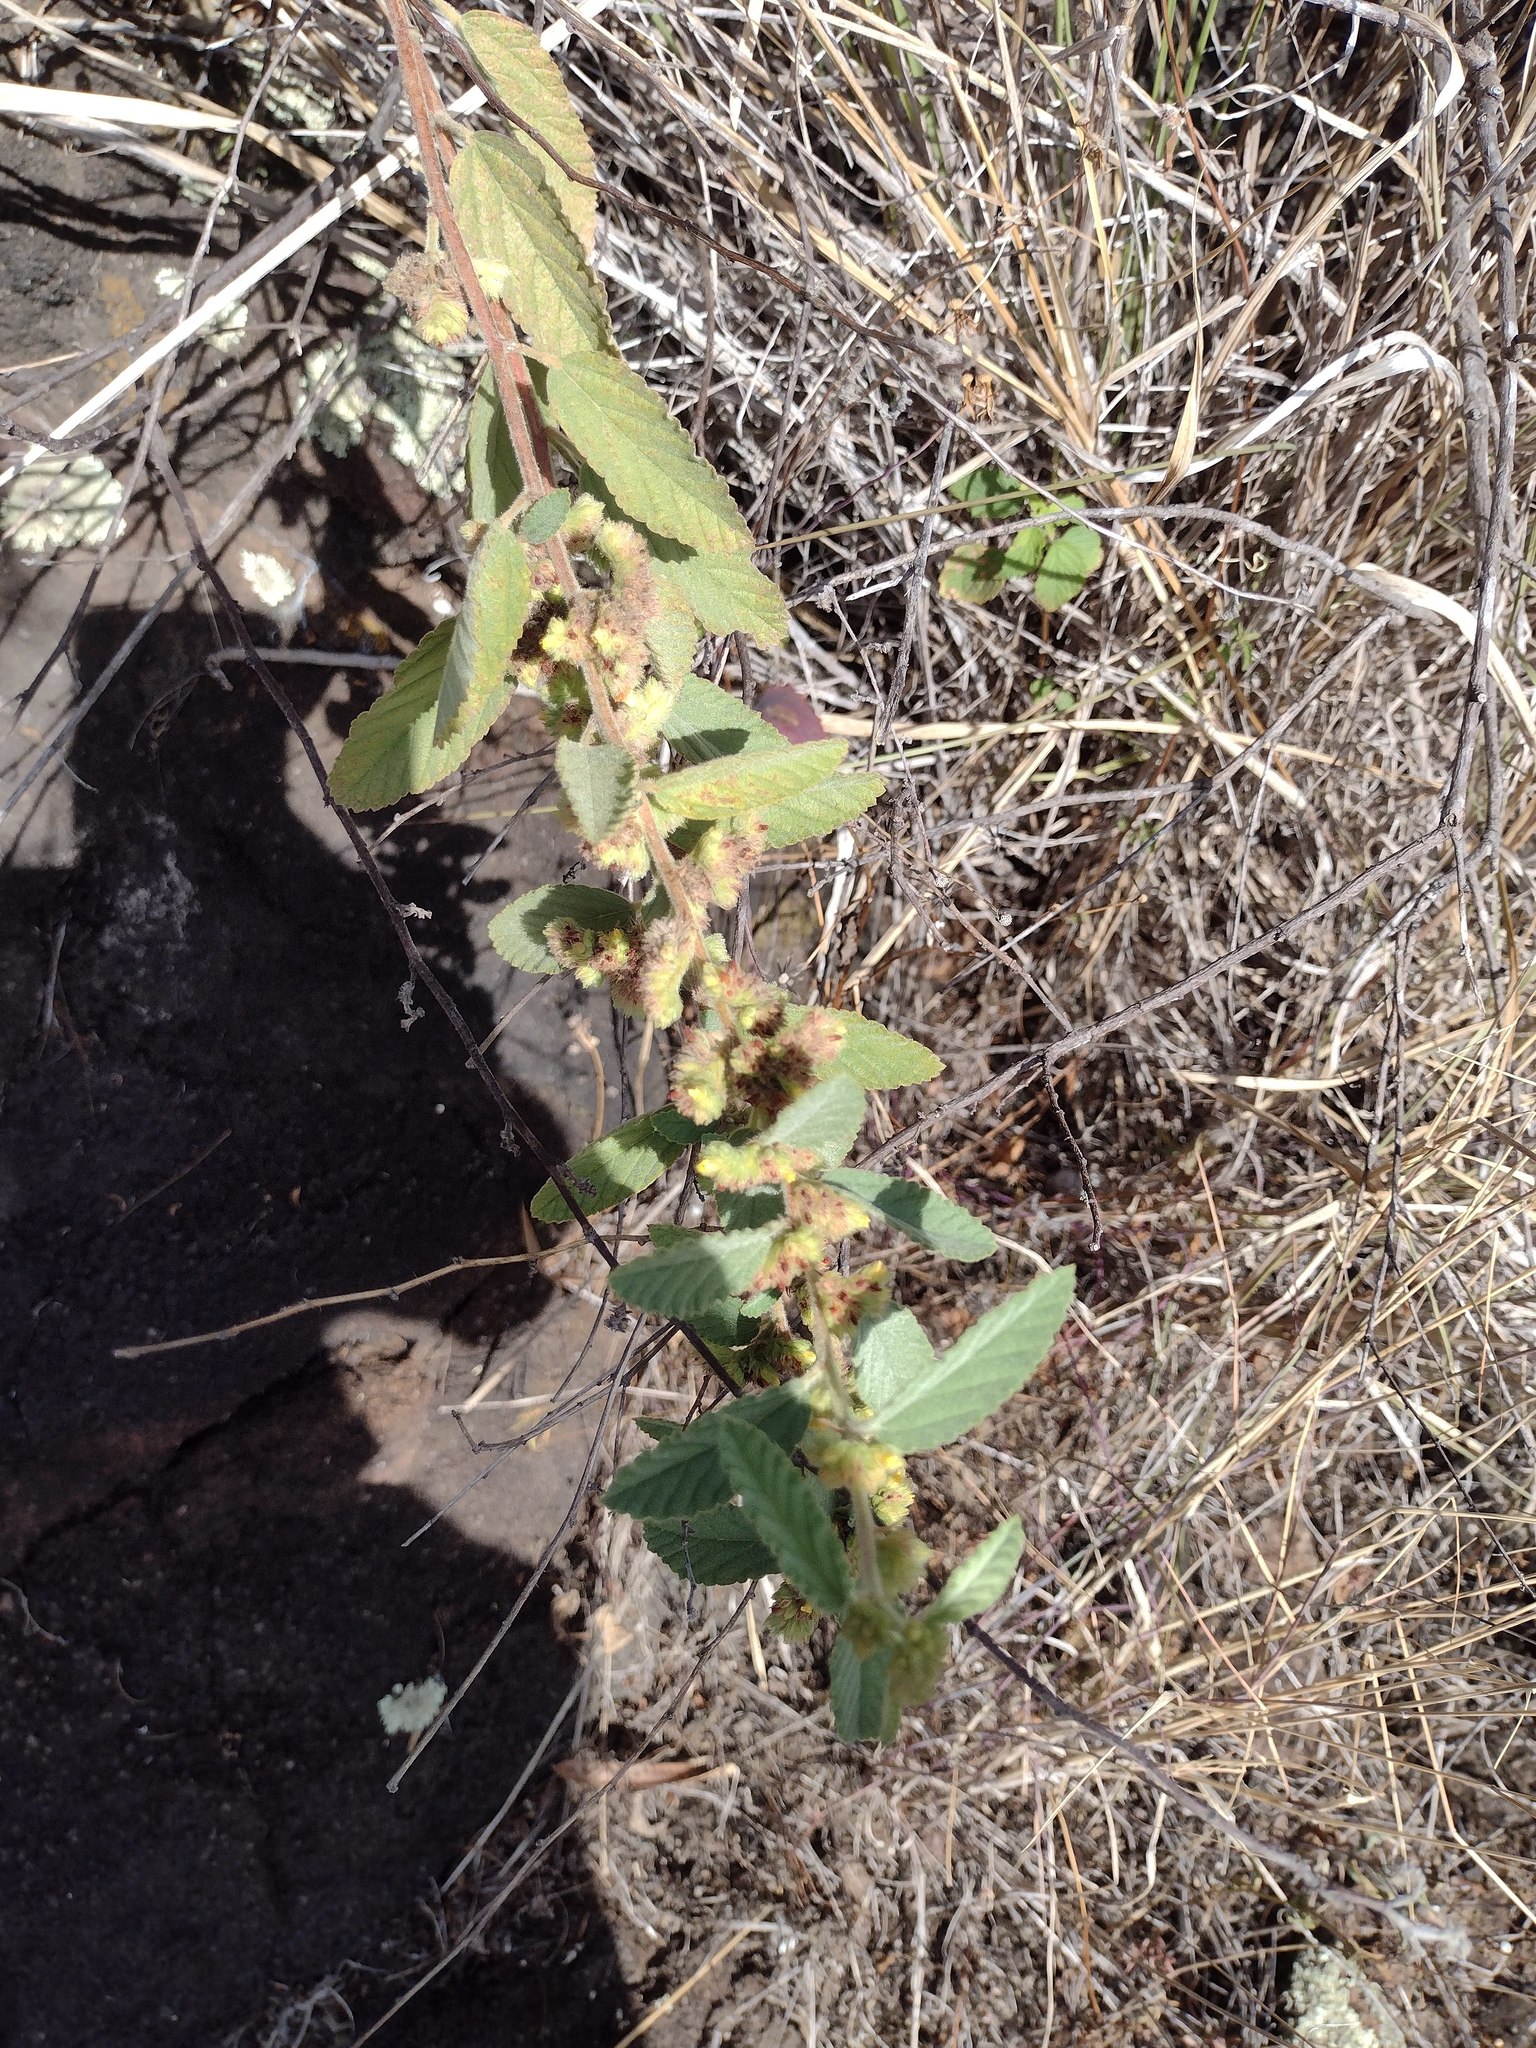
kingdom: Plantae
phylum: Tracheophyta
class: Magnoliopsida
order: Malvales
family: Malvaceae
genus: Waltheria
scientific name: Waltheria indica
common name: Leather-coat
